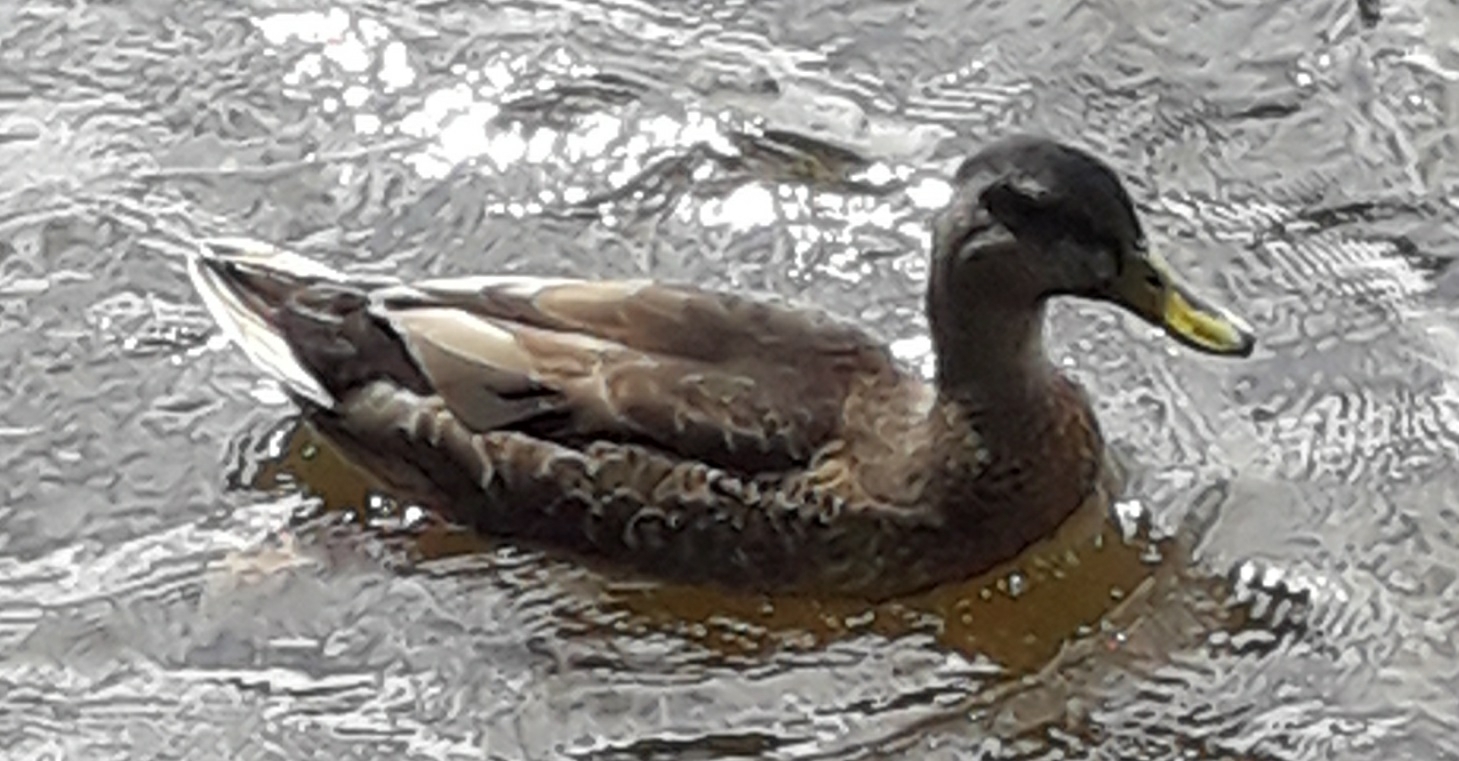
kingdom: Animalia
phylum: Chordata
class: Aves
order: Anseriformes
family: Anatidae
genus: Anas
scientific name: Anas platyrhynchos
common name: Mallard
